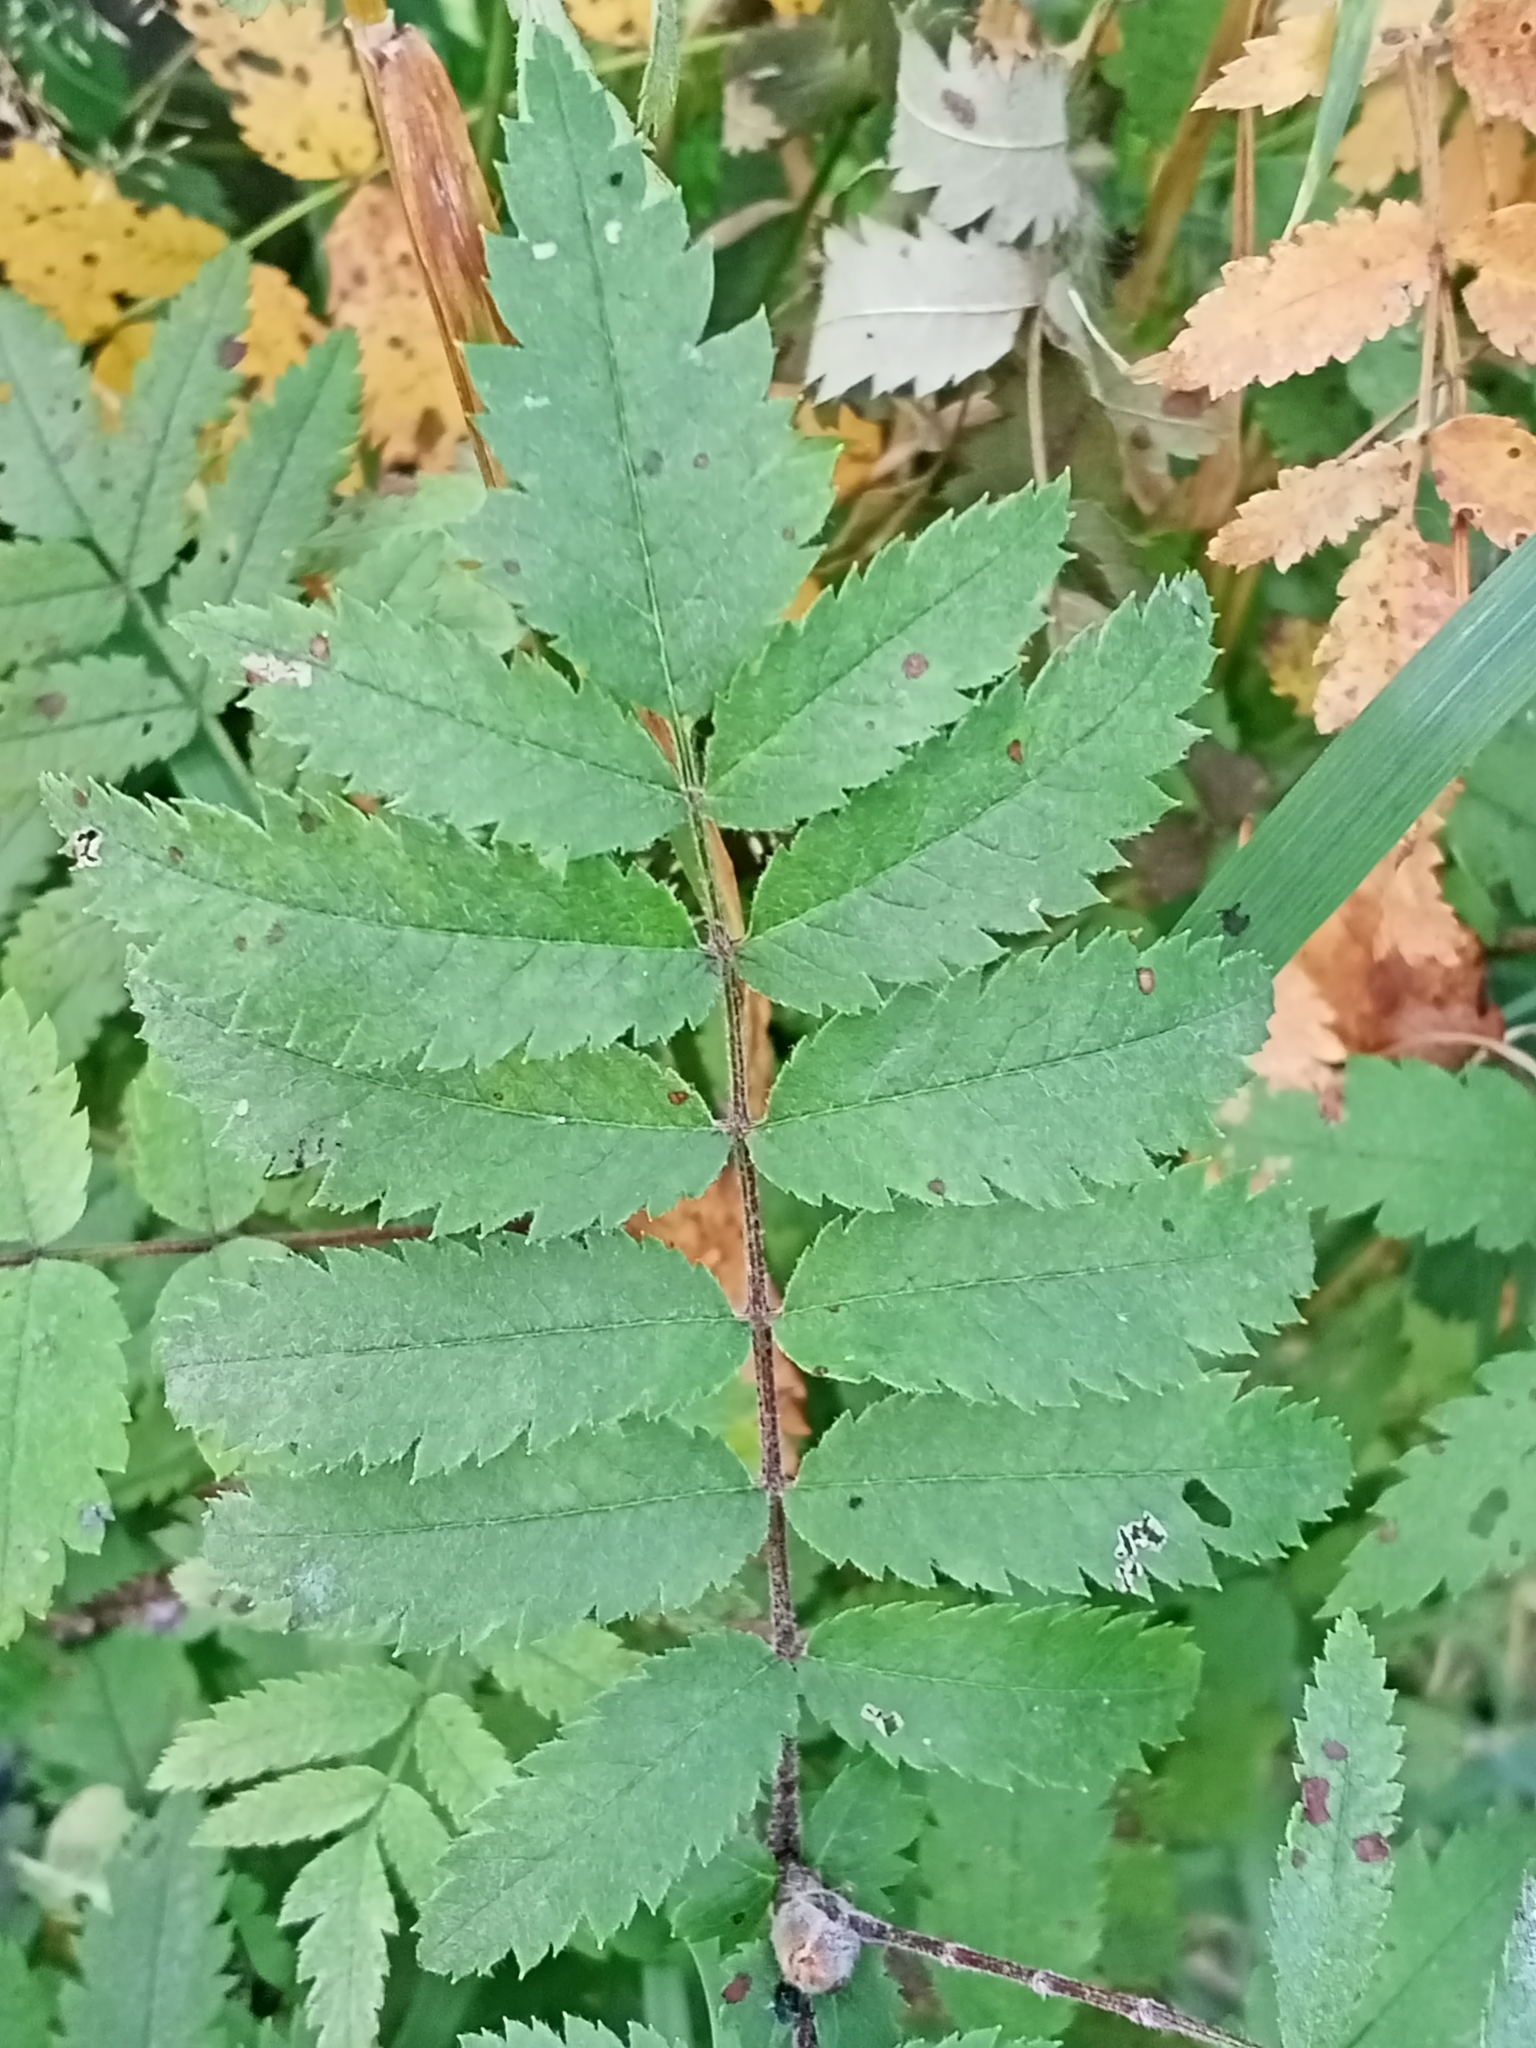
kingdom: Plantae
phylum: Tracheophyta
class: Magnoliopsida
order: Rosales
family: Rosaceae
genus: Sorbus
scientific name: Sorbus aucuparia
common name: Rowan
